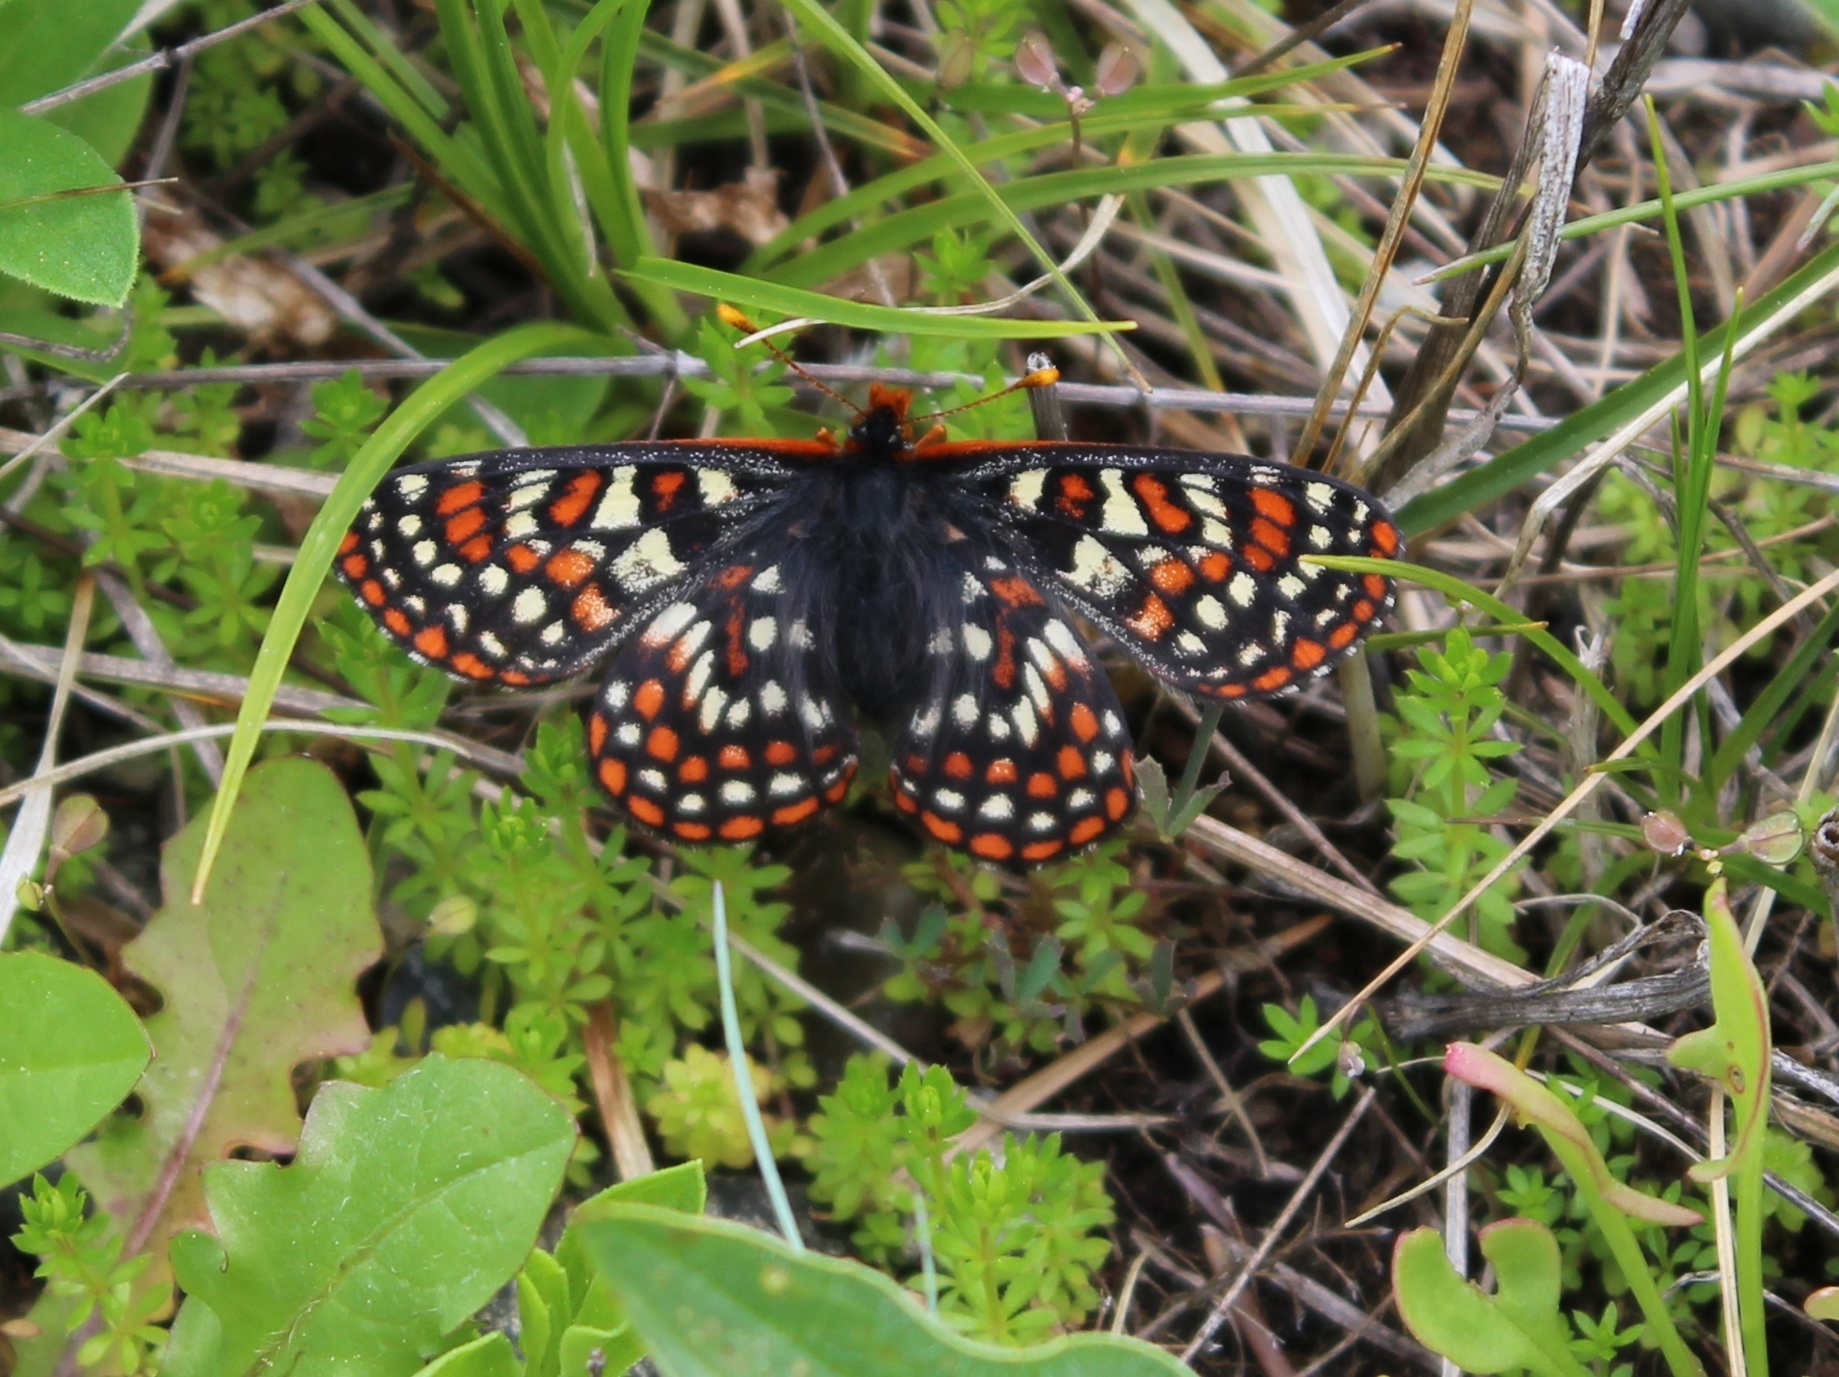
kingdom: Animalia
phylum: Arthropoda
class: Insecta
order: Lepidoptera
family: Nymphalidae
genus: Occidryas
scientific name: Occidryas editha
